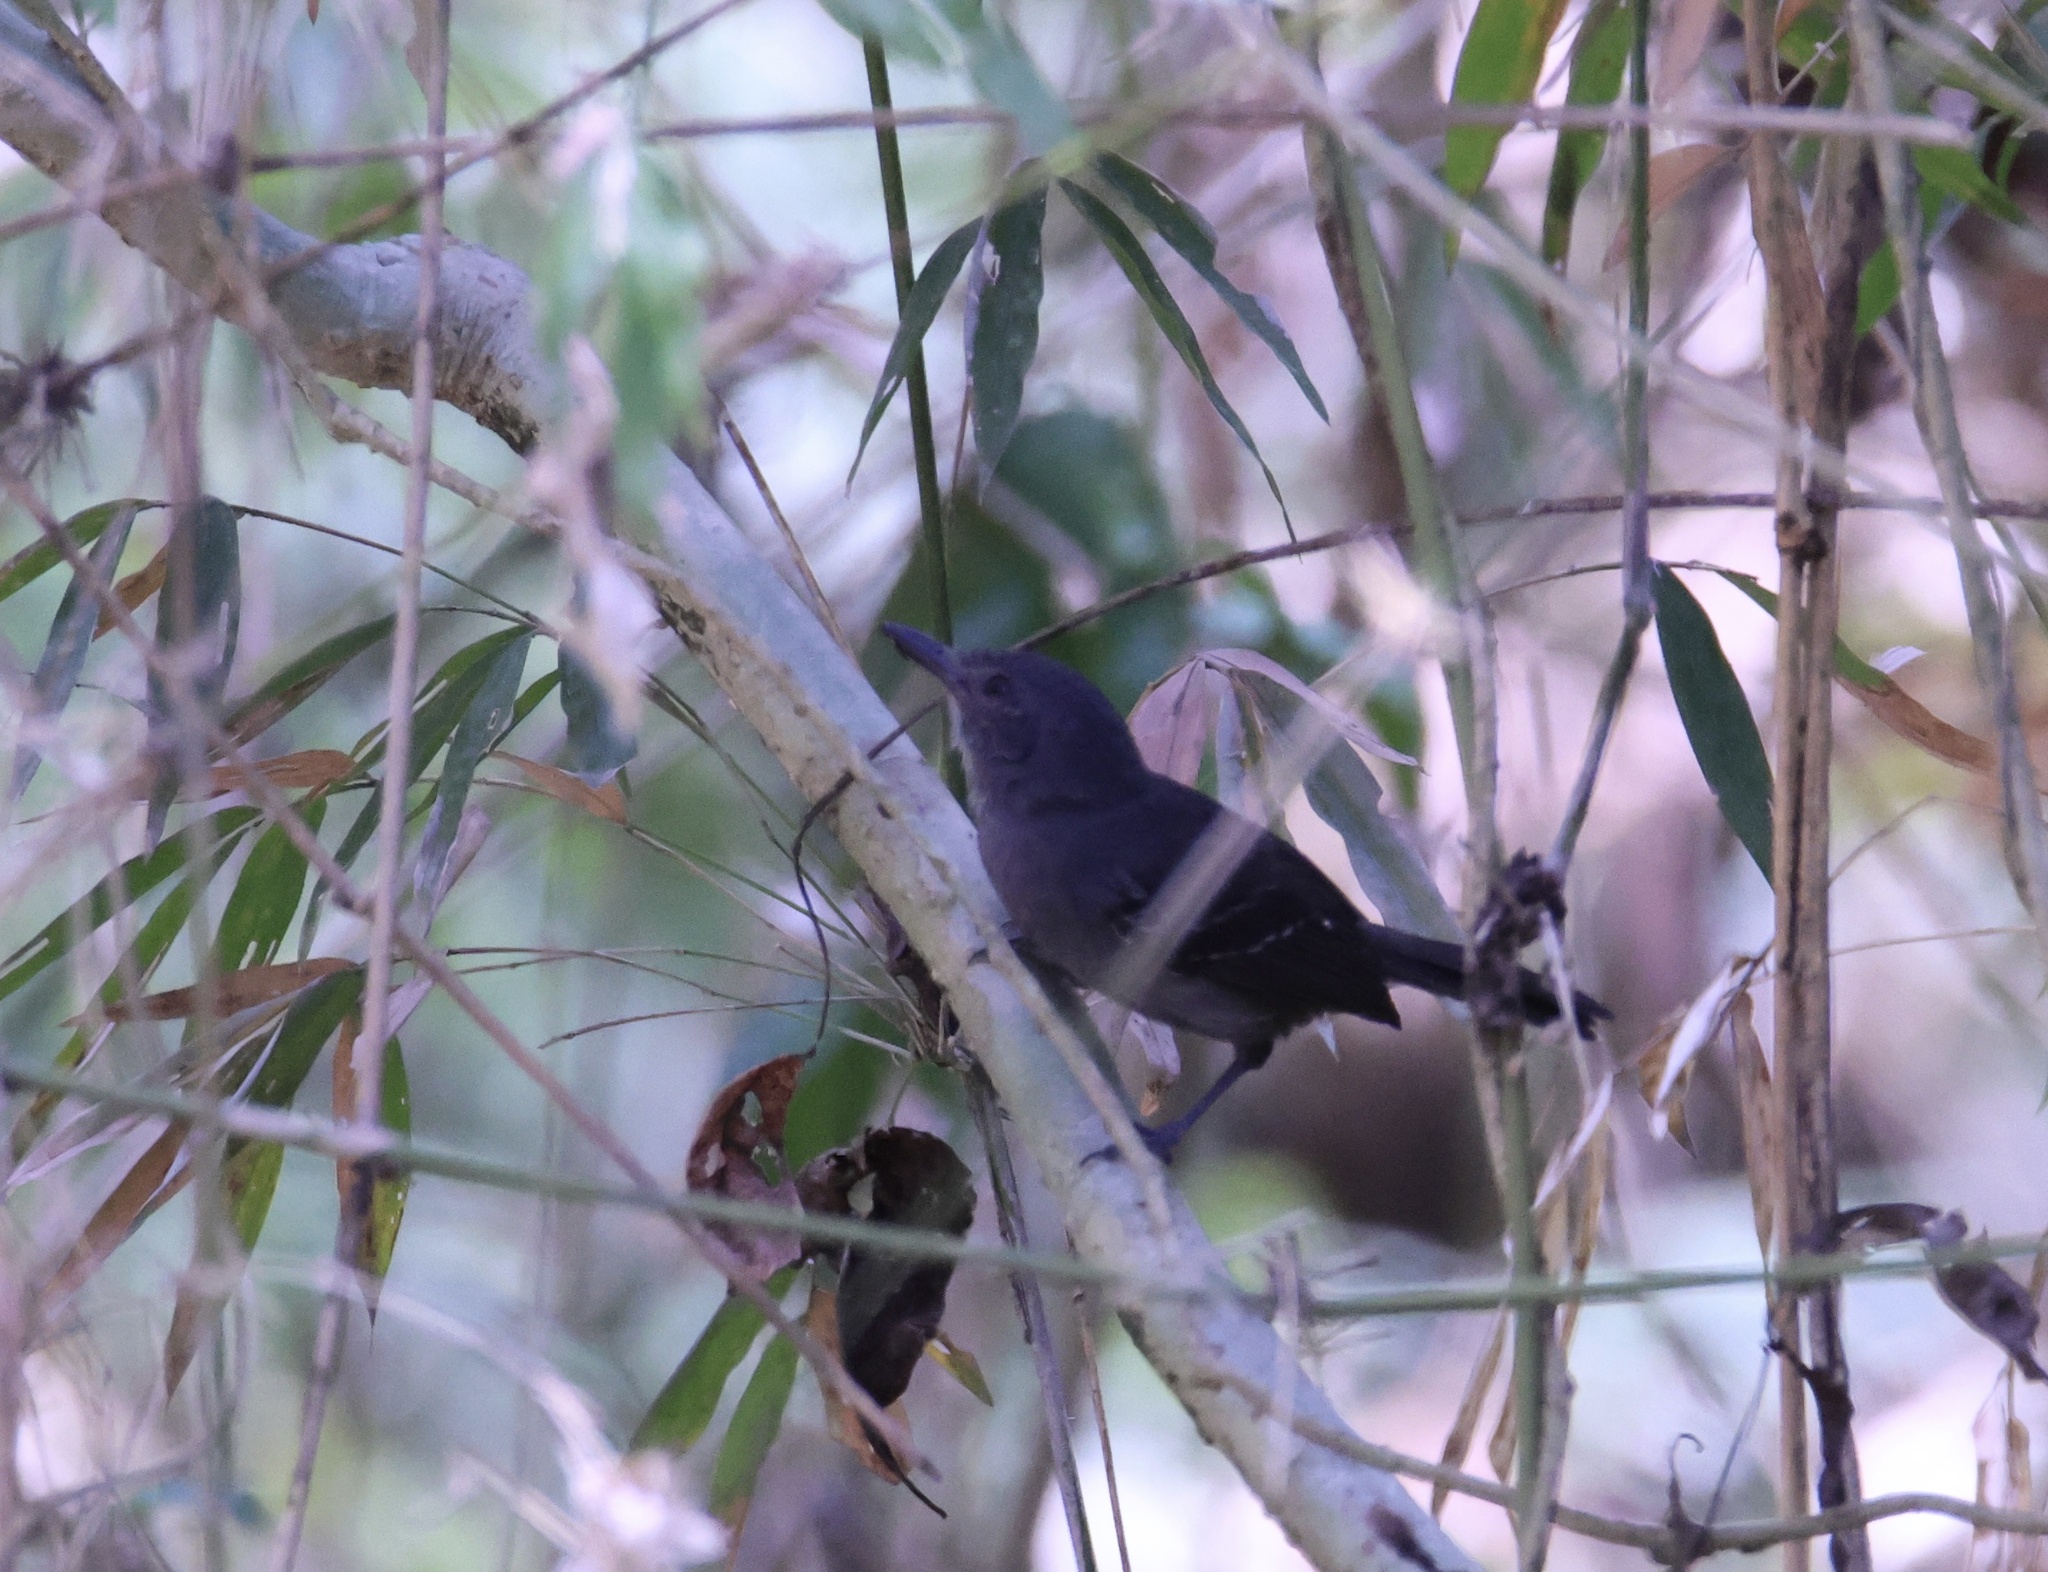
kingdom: Animalia
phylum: Chordata
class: Aves
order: Passeriformes
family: Thamnophilidae
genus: Cercomacra
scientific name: Cercomacra tyrannina
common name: Dusky antbird
